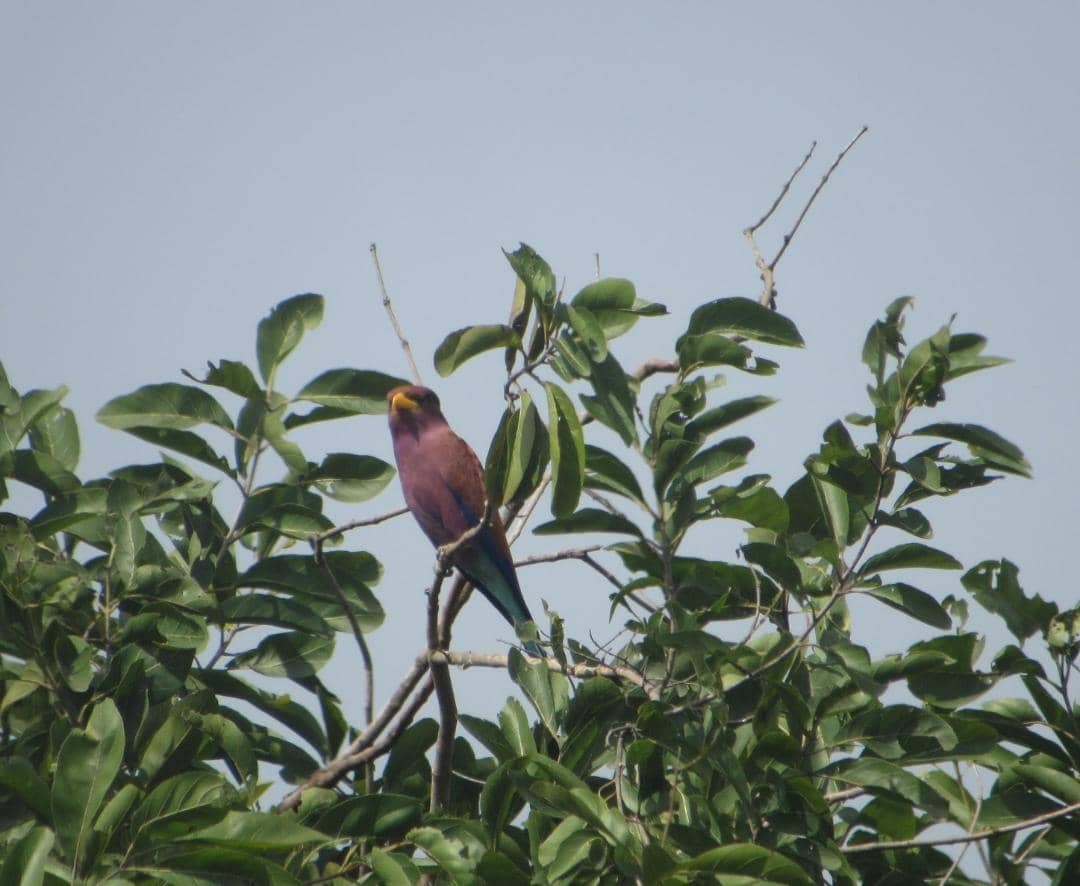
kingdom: Animalia
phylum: Chordata
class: Aves
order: Coraciiformes
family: Coraciidae
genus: Eurystomus
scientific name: Eurystomus glaucurus
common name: Broad-billed roller
